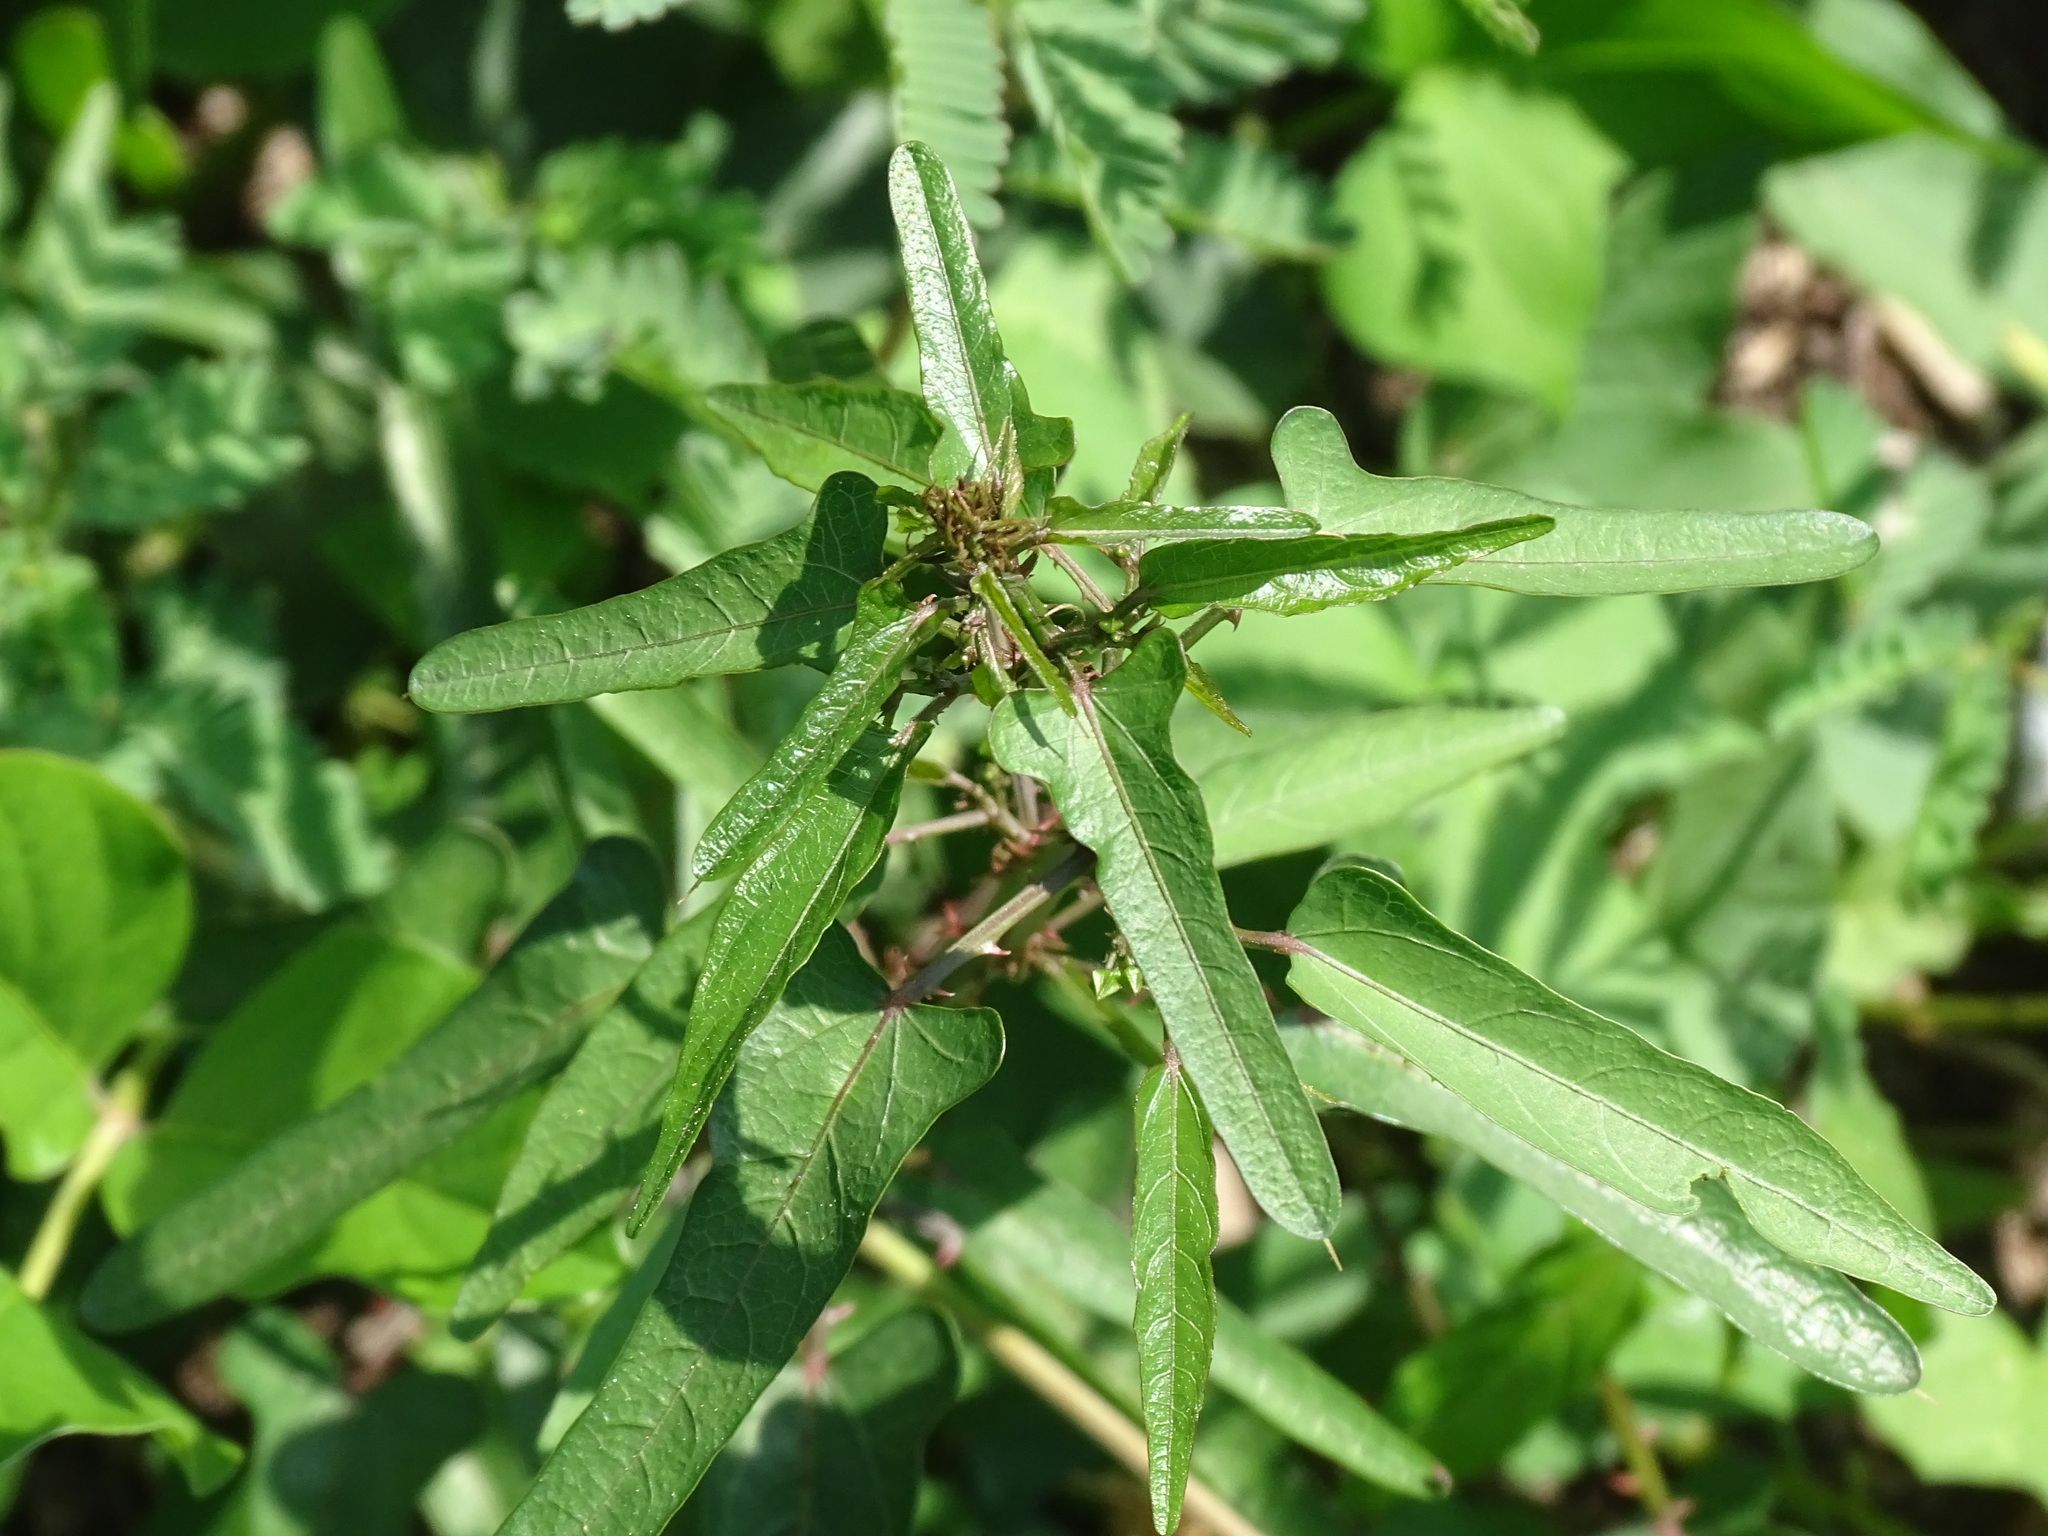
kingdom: Plantae
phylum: Tracheophyta
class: Magnoliopsida
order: Malvales
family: Malvaceae
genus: Byttneria
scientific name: Byttneria aculeata
